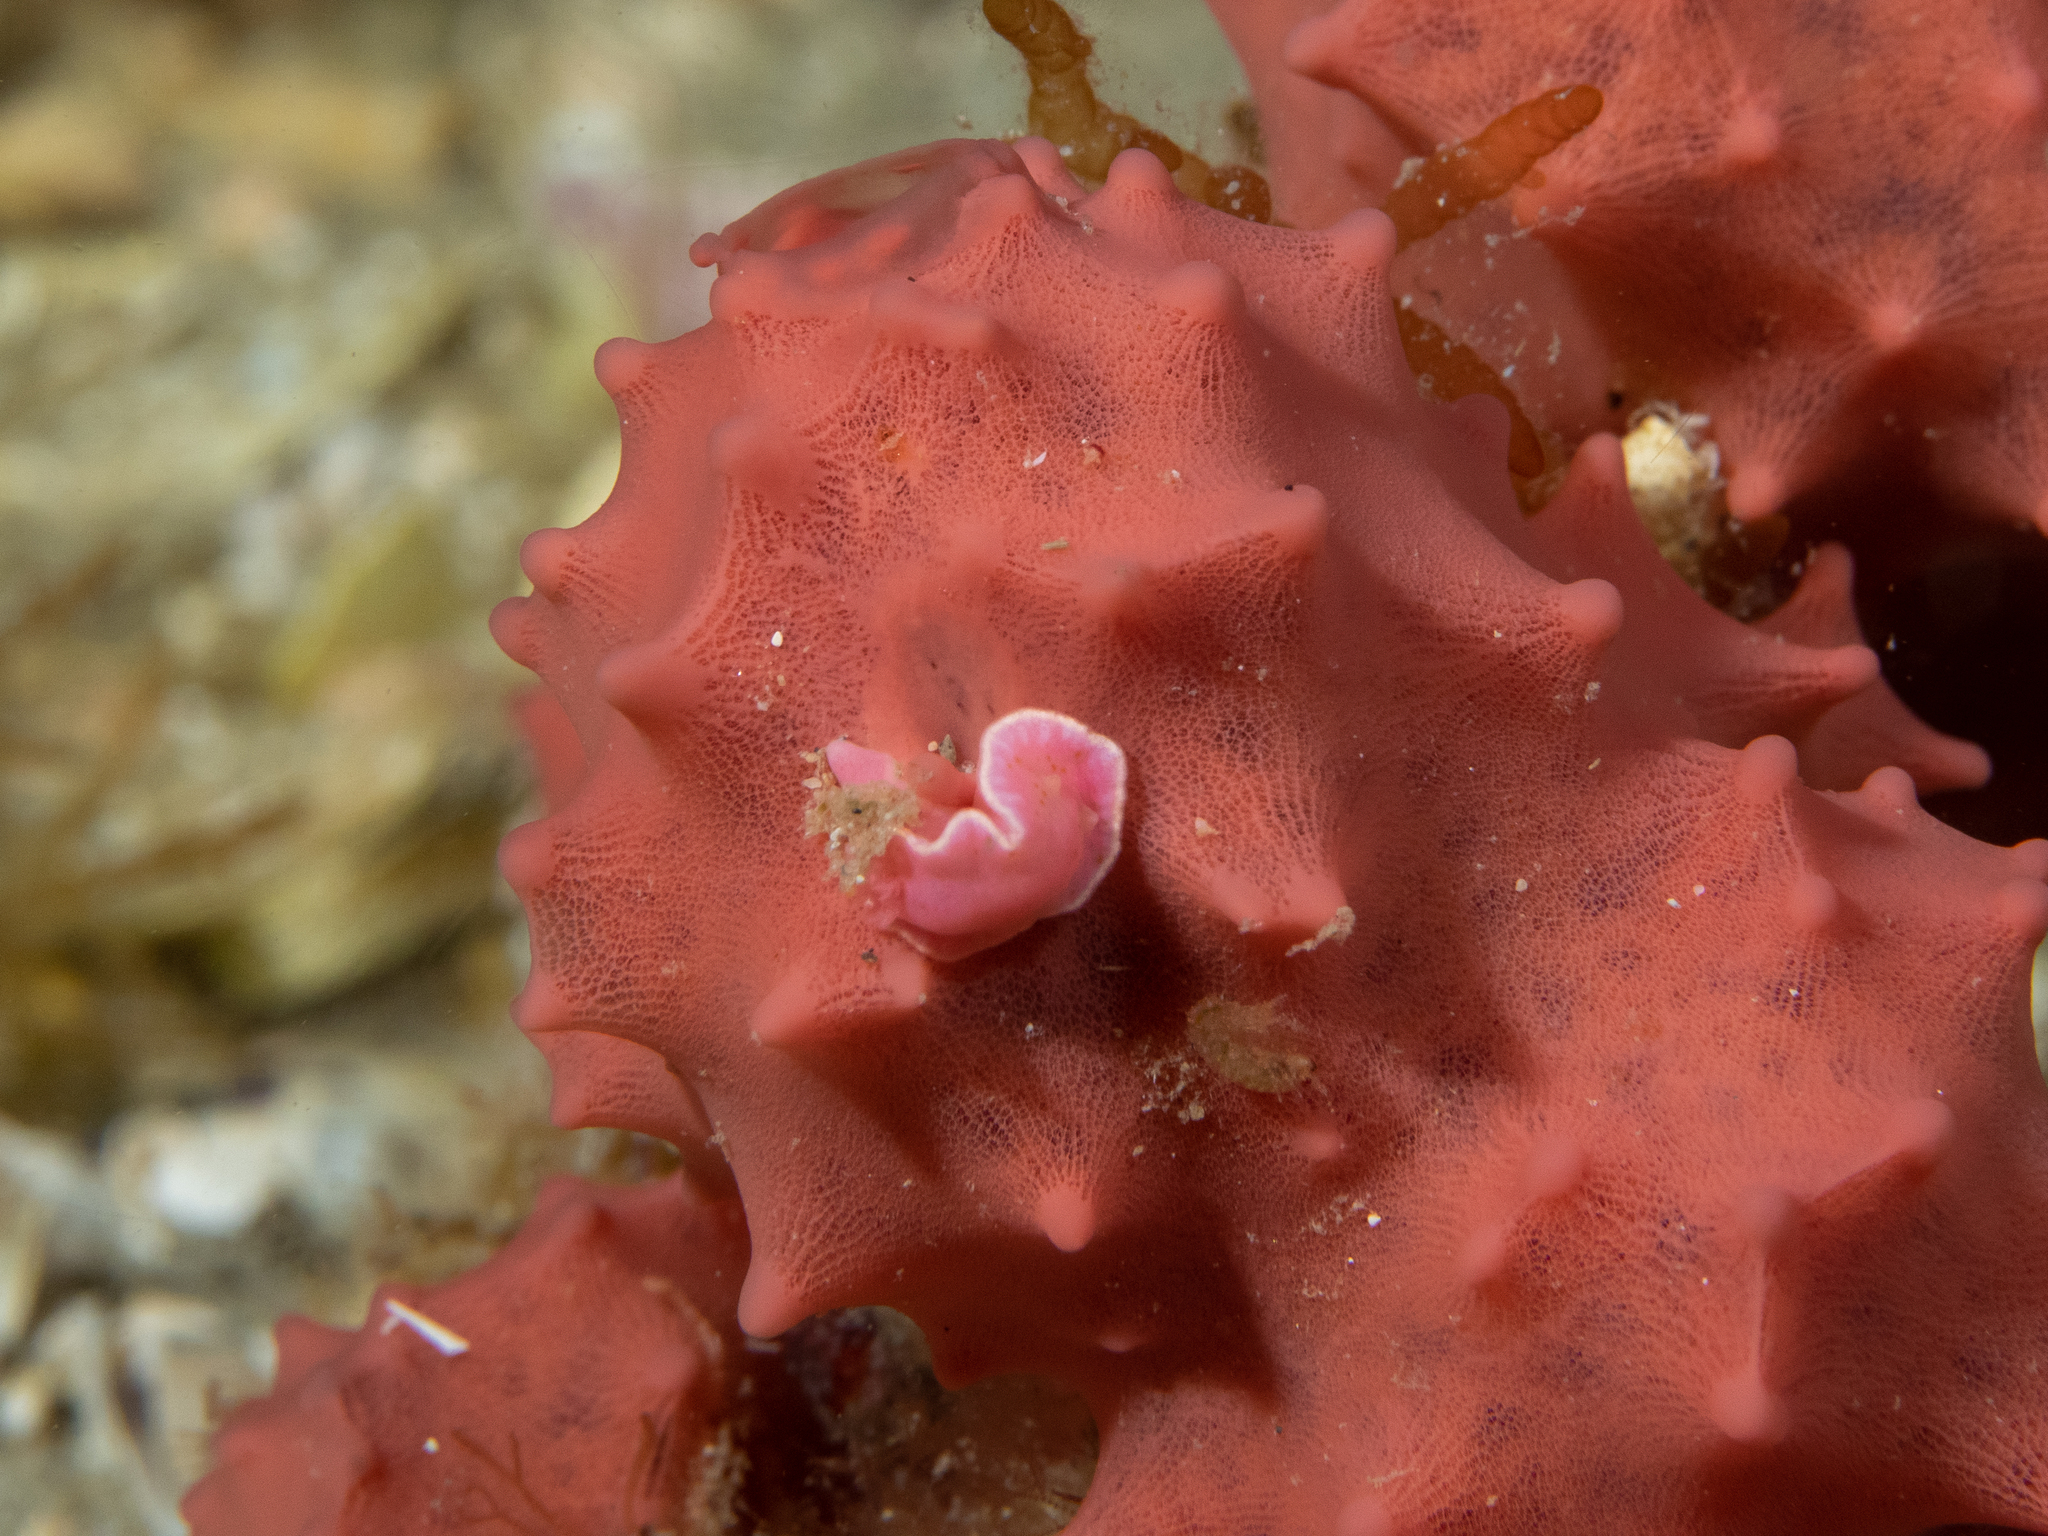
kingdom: Animalia
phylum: Mollusca
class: Gastropoda
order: Nudibranchia
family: Chromodorididae
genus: Verconia
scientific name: Verconia haliclona
